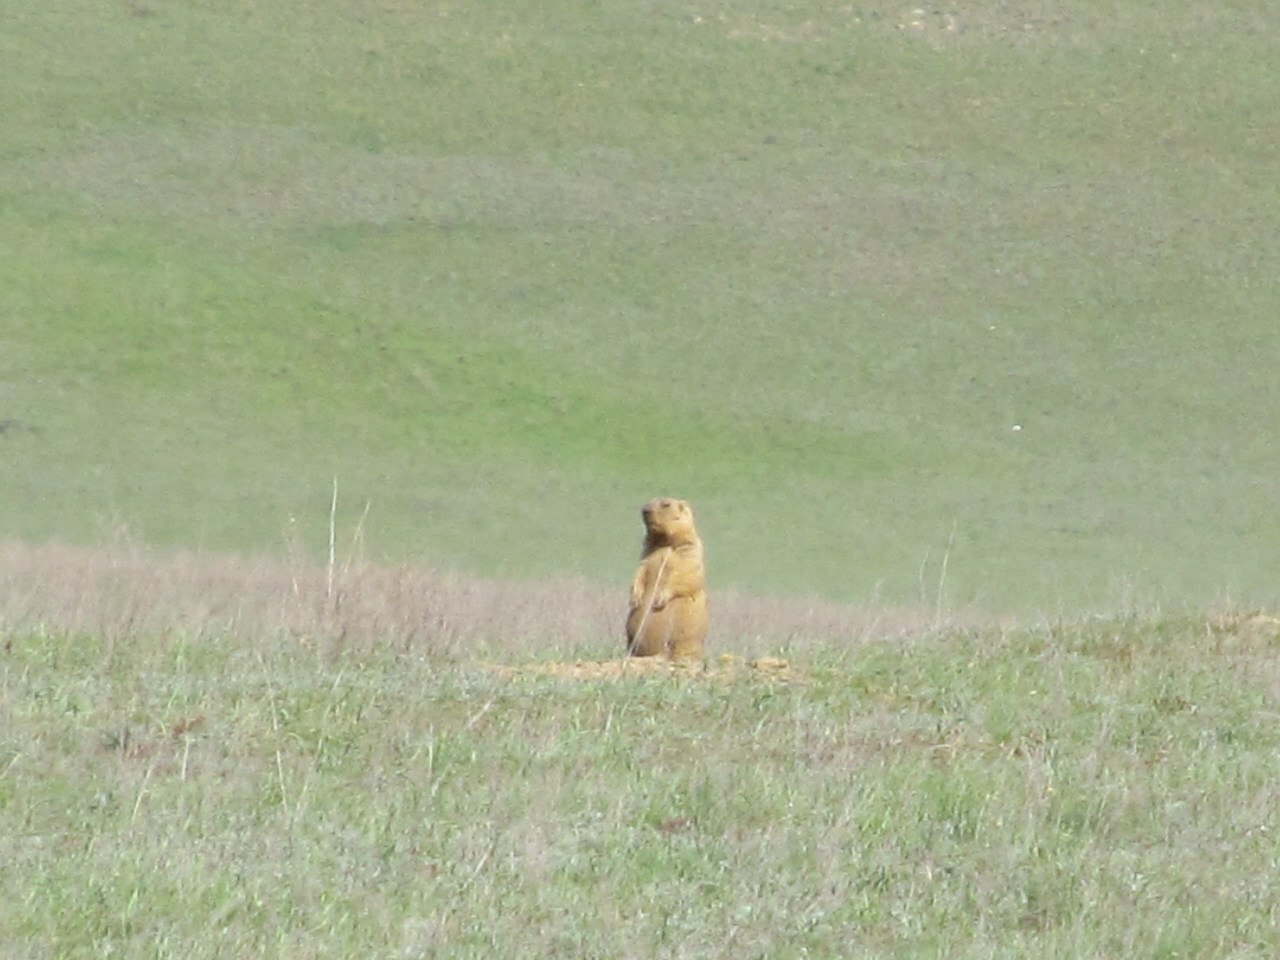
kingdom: Animalia
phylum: Chordata
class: Mammalia
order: Rodentia
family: Sciuridae
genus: Marmota
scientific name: Marmota bobak
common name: Bobak marmot
